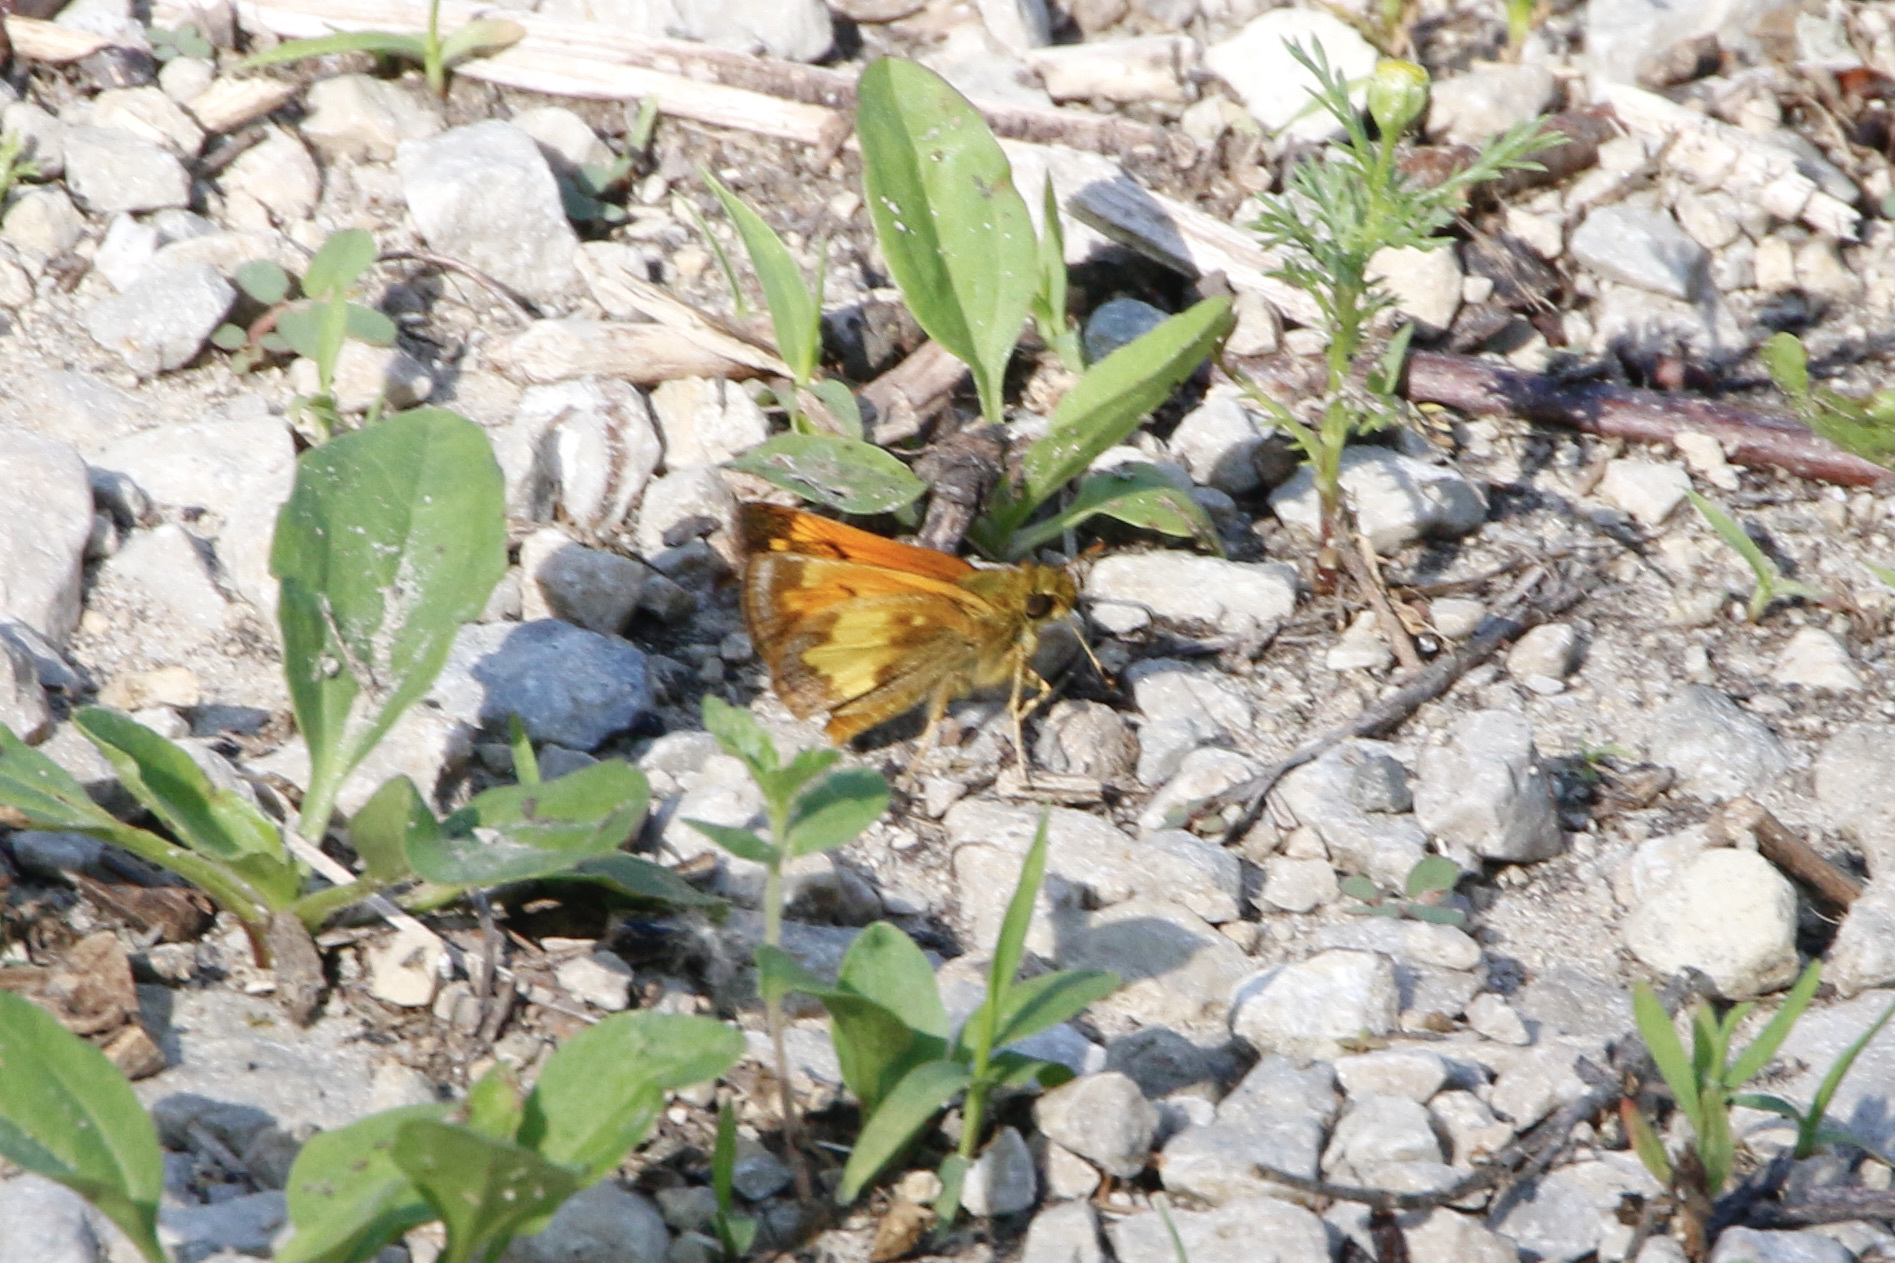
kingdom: Animalia
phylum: Arthropoda
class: Insecta
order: Lepidoptera
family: Hesperiidae
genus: Lon
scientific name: Lon hobomok
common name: Hobomok skipper
